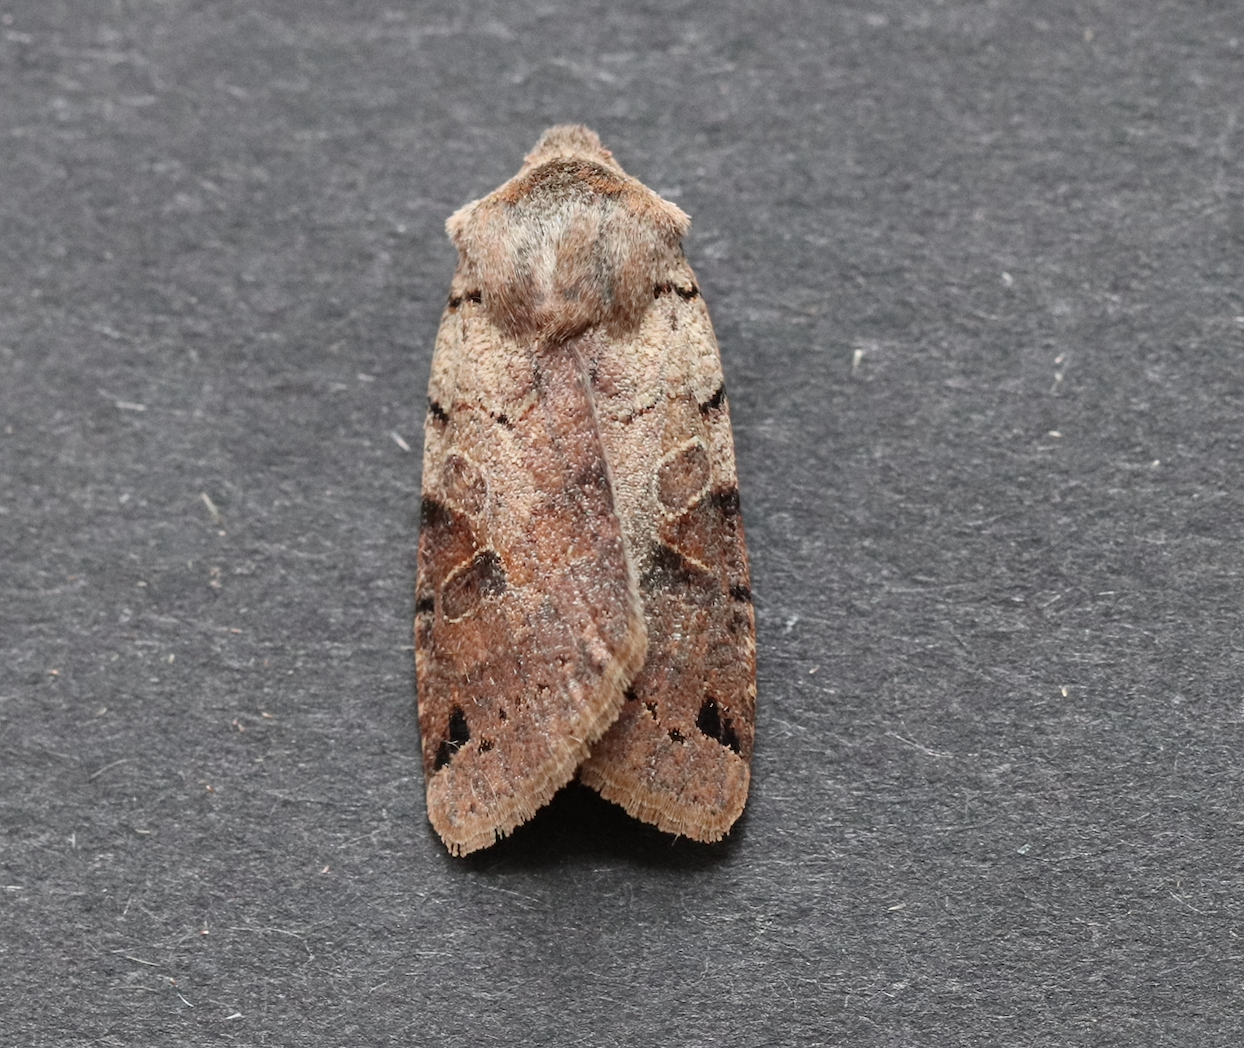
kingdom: Animalia
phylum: Arthropoda
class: Insecta
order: Lepidoptera
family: Noctuidae
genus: Agrochola
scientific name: Agrochola litura
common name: Brown-spot pinion
